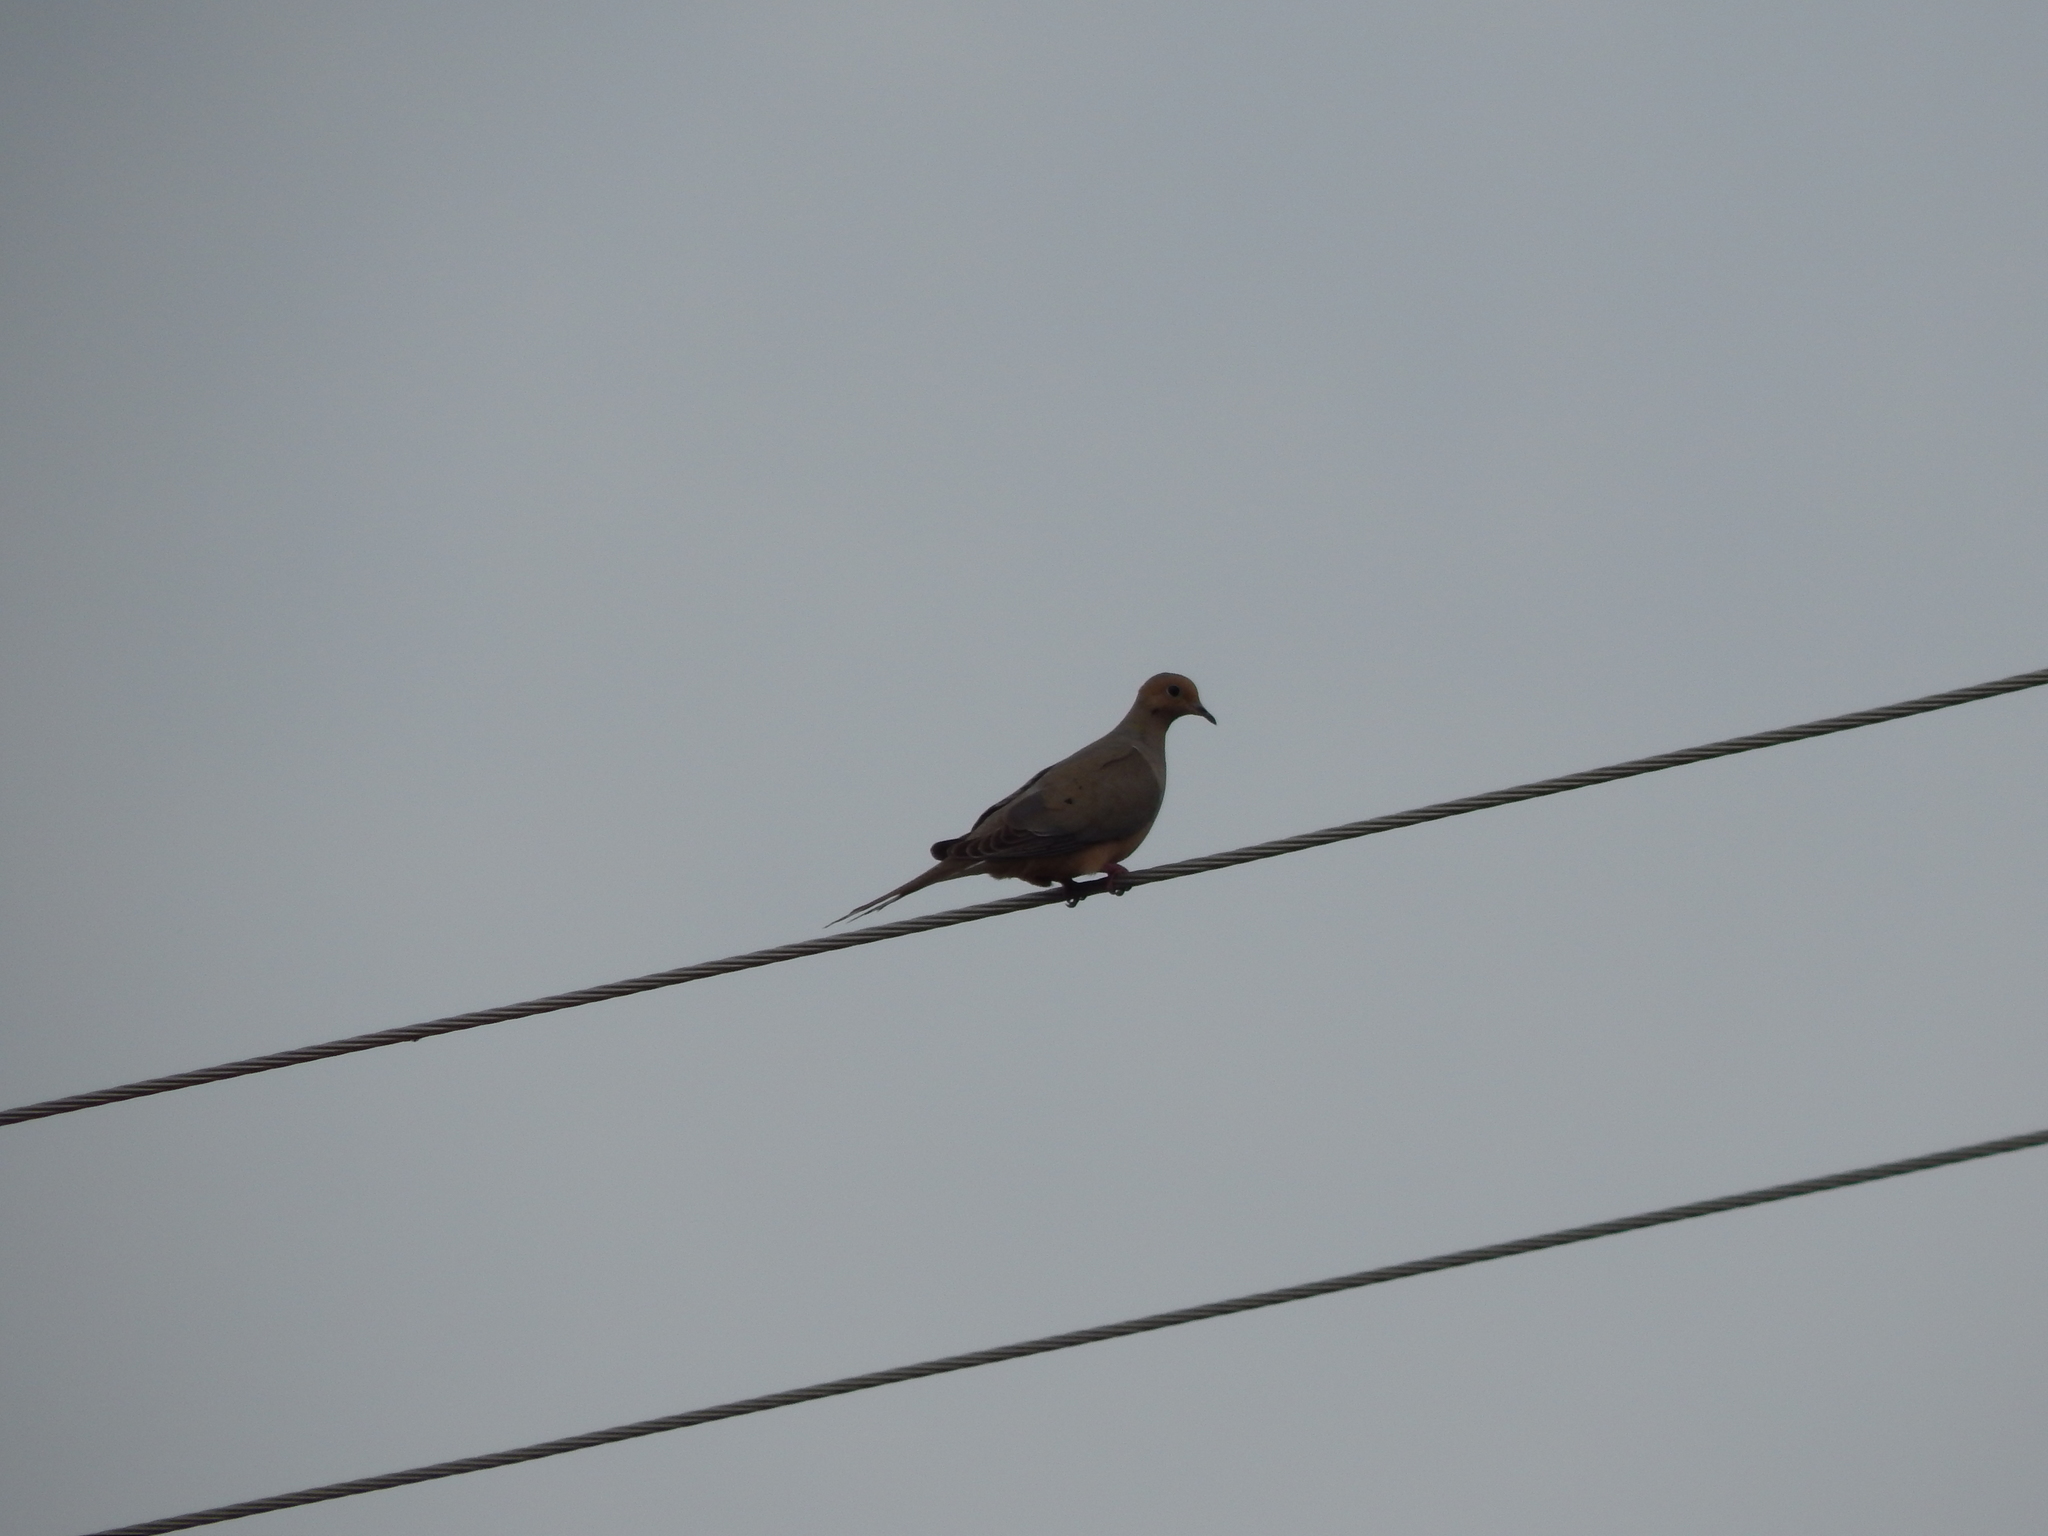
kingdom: Animalia
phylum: Chordata
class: Aves
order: Columbiformes
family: Columbidae
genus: Zenaida
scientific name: Zenaida macroura
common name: Mourning dove
